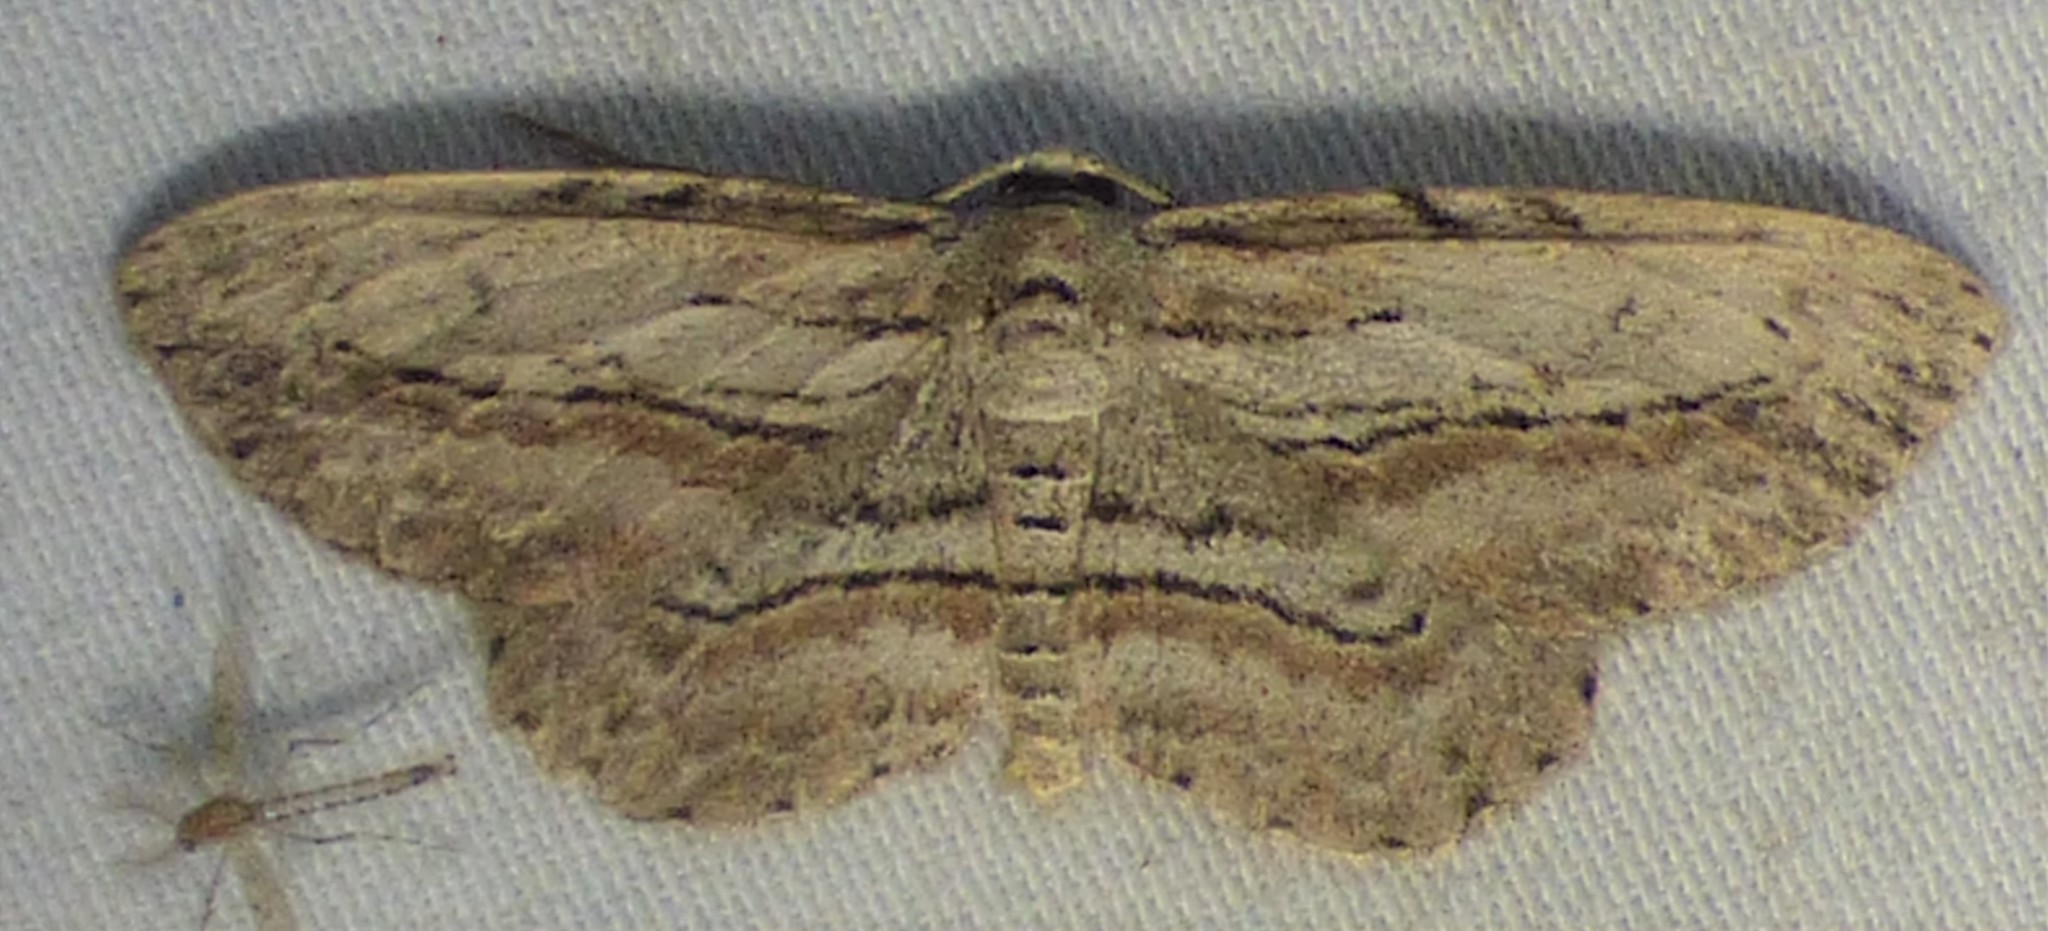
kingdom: Animalia
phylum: Arthropoda
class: Insecta
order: Lepidoptera
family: Geometridae
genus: Glena
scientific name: Glena plumosaria
